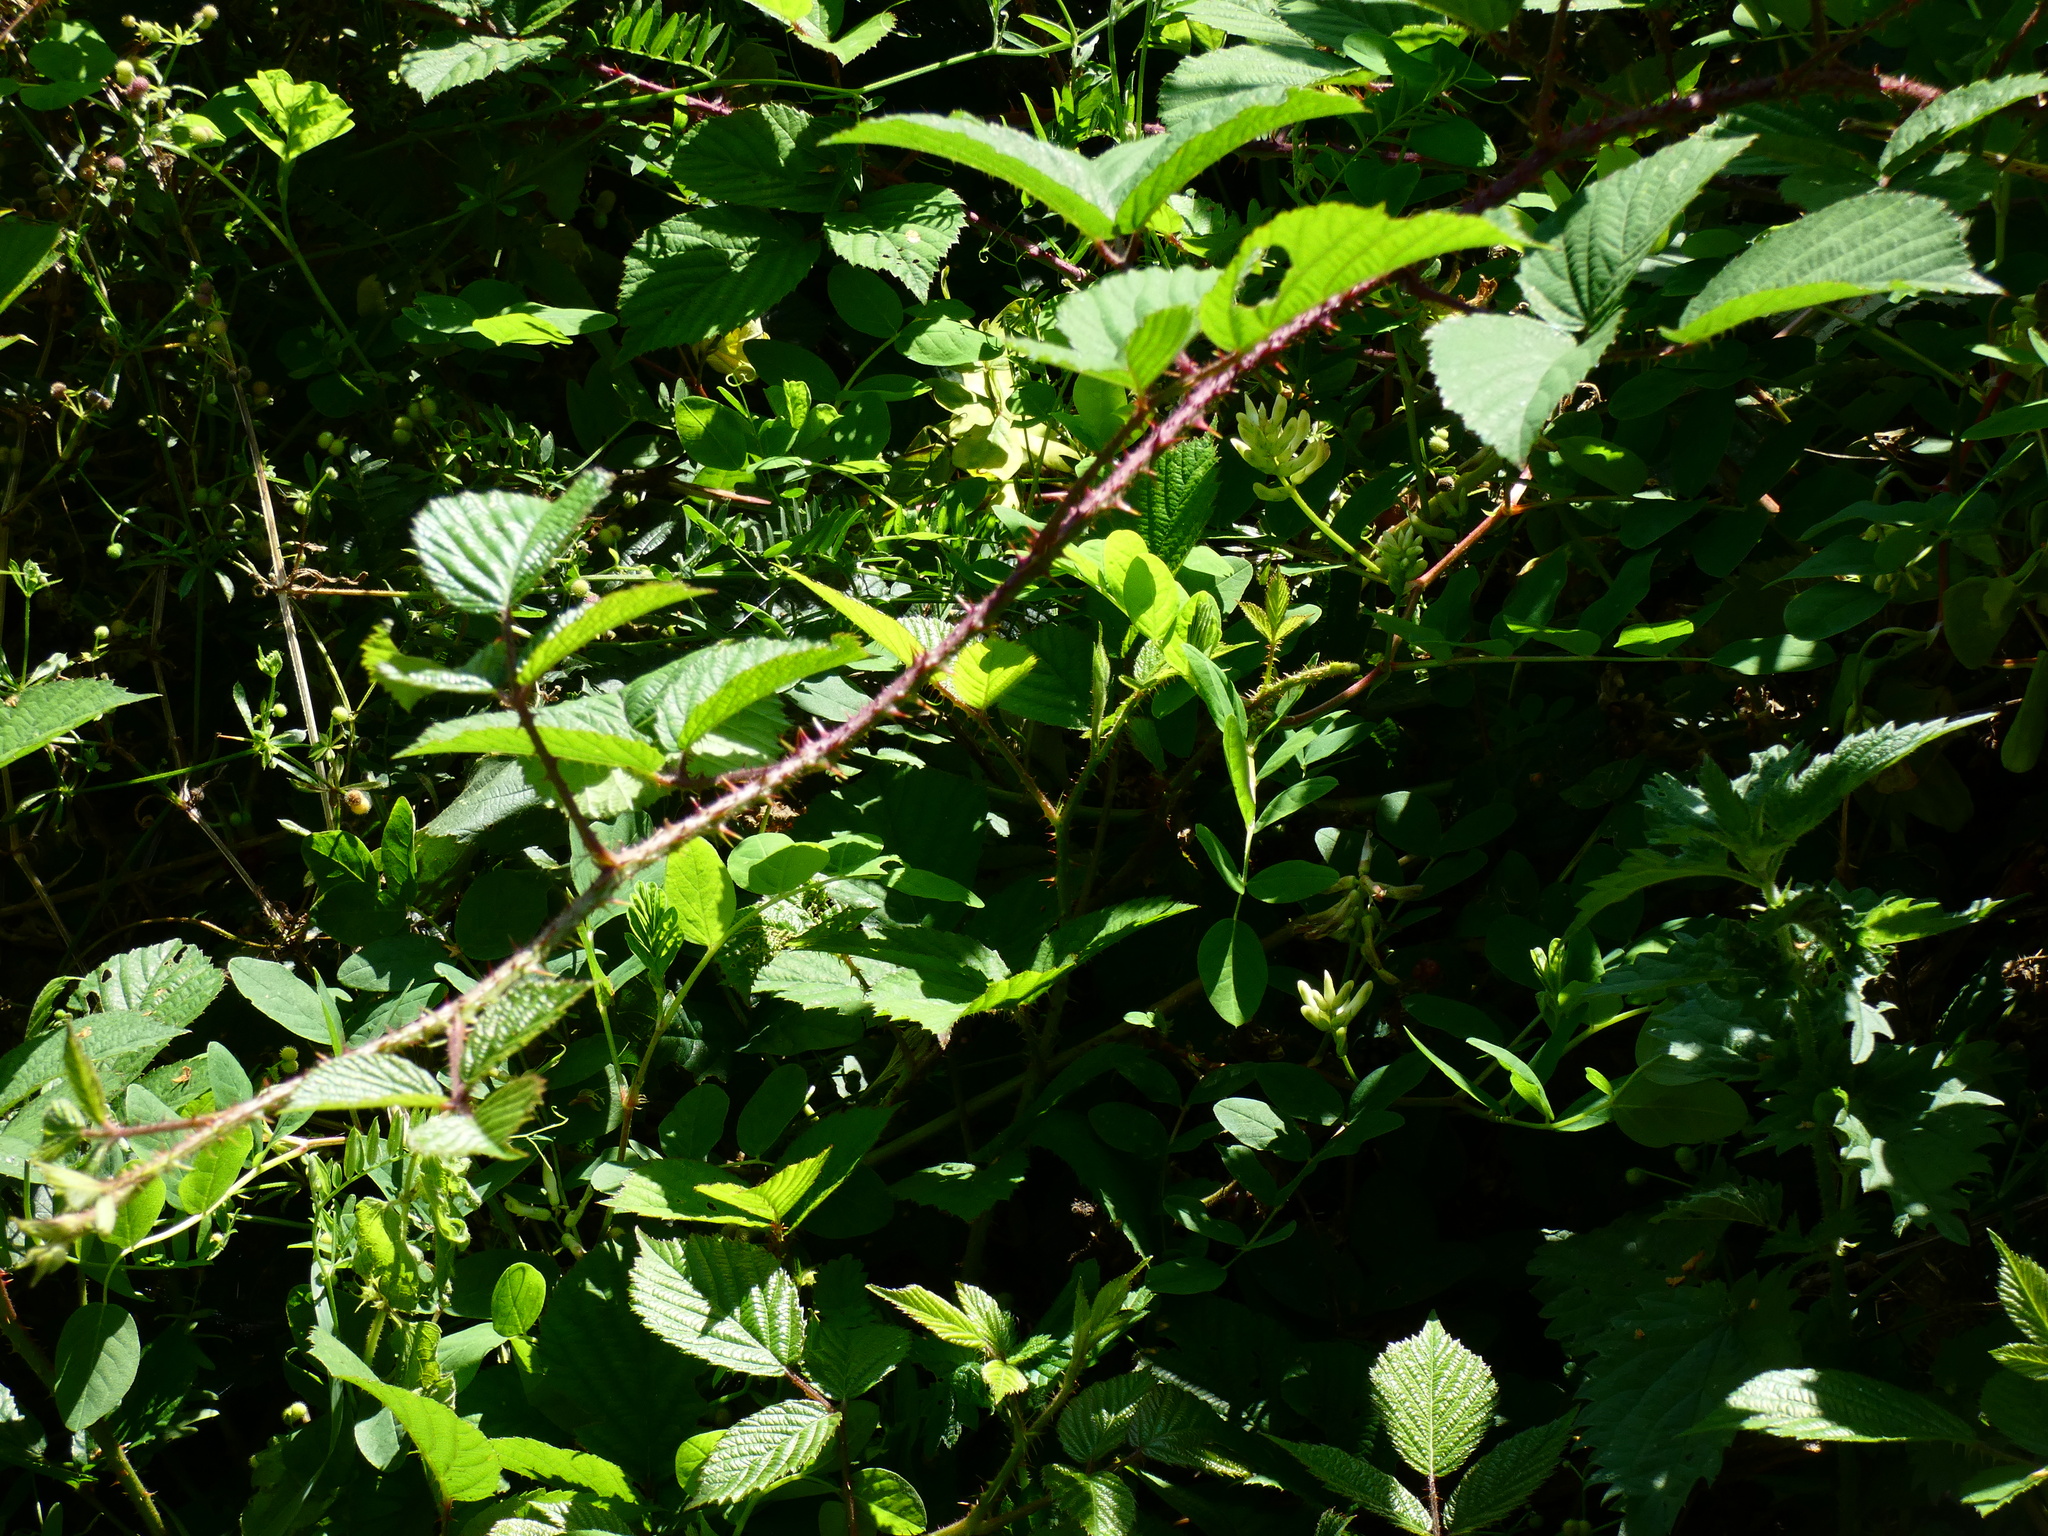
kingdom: Plantae
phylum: Tracheophyta
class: Magnoliopsida
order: Fabales
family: Fabaceae
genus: Astragalus
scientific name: Astragalus glycyphyllos
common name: Wild liquorice
